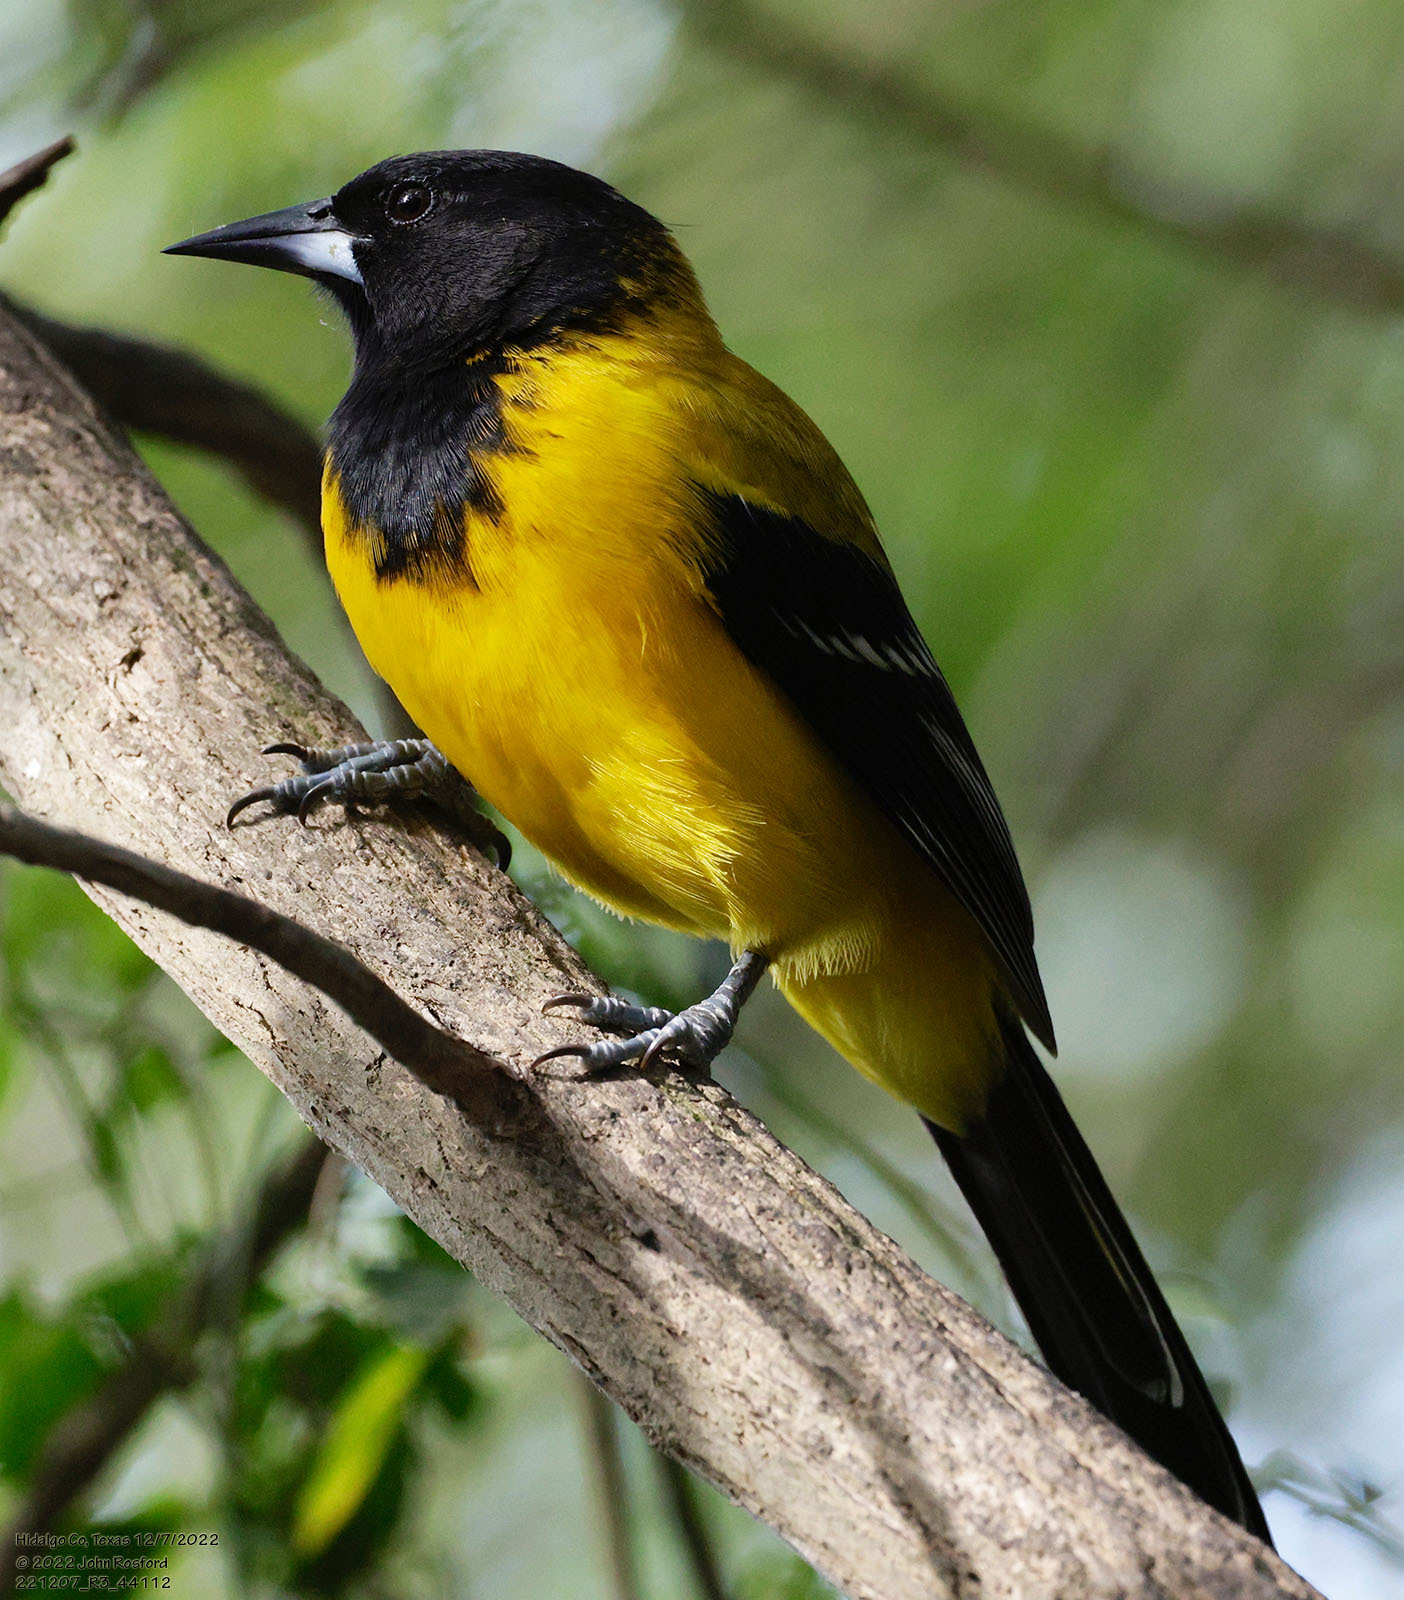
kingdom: Animalia
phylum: Chordata
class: Aves
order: Passeriformes
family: Icteridae
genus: Icterus
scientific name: Icterus graduacauda
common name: Audubon's oriole
